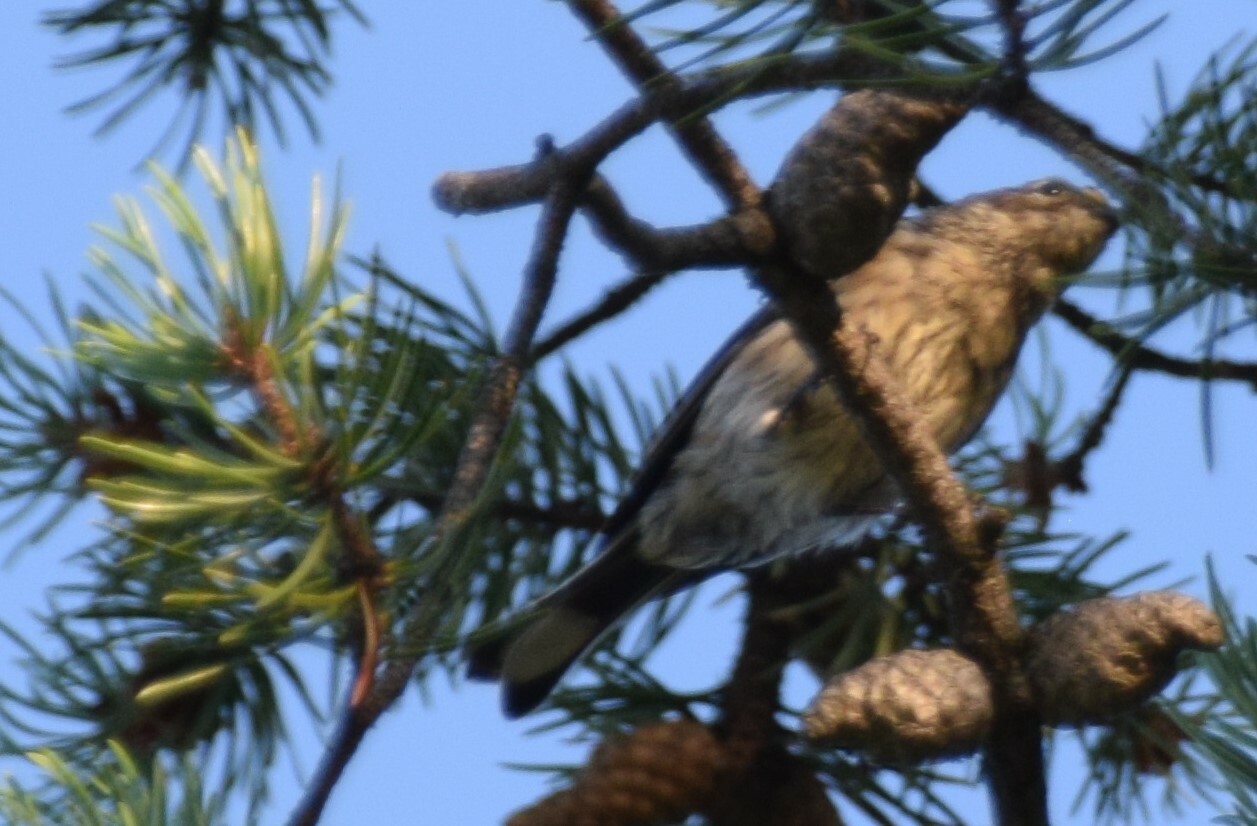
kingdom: Animalia
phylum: Chordata
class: Aves
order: Passeriformes
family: Parulidae
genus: Setophaga
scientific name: Setophaga coronata
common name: Myrtle warbler
